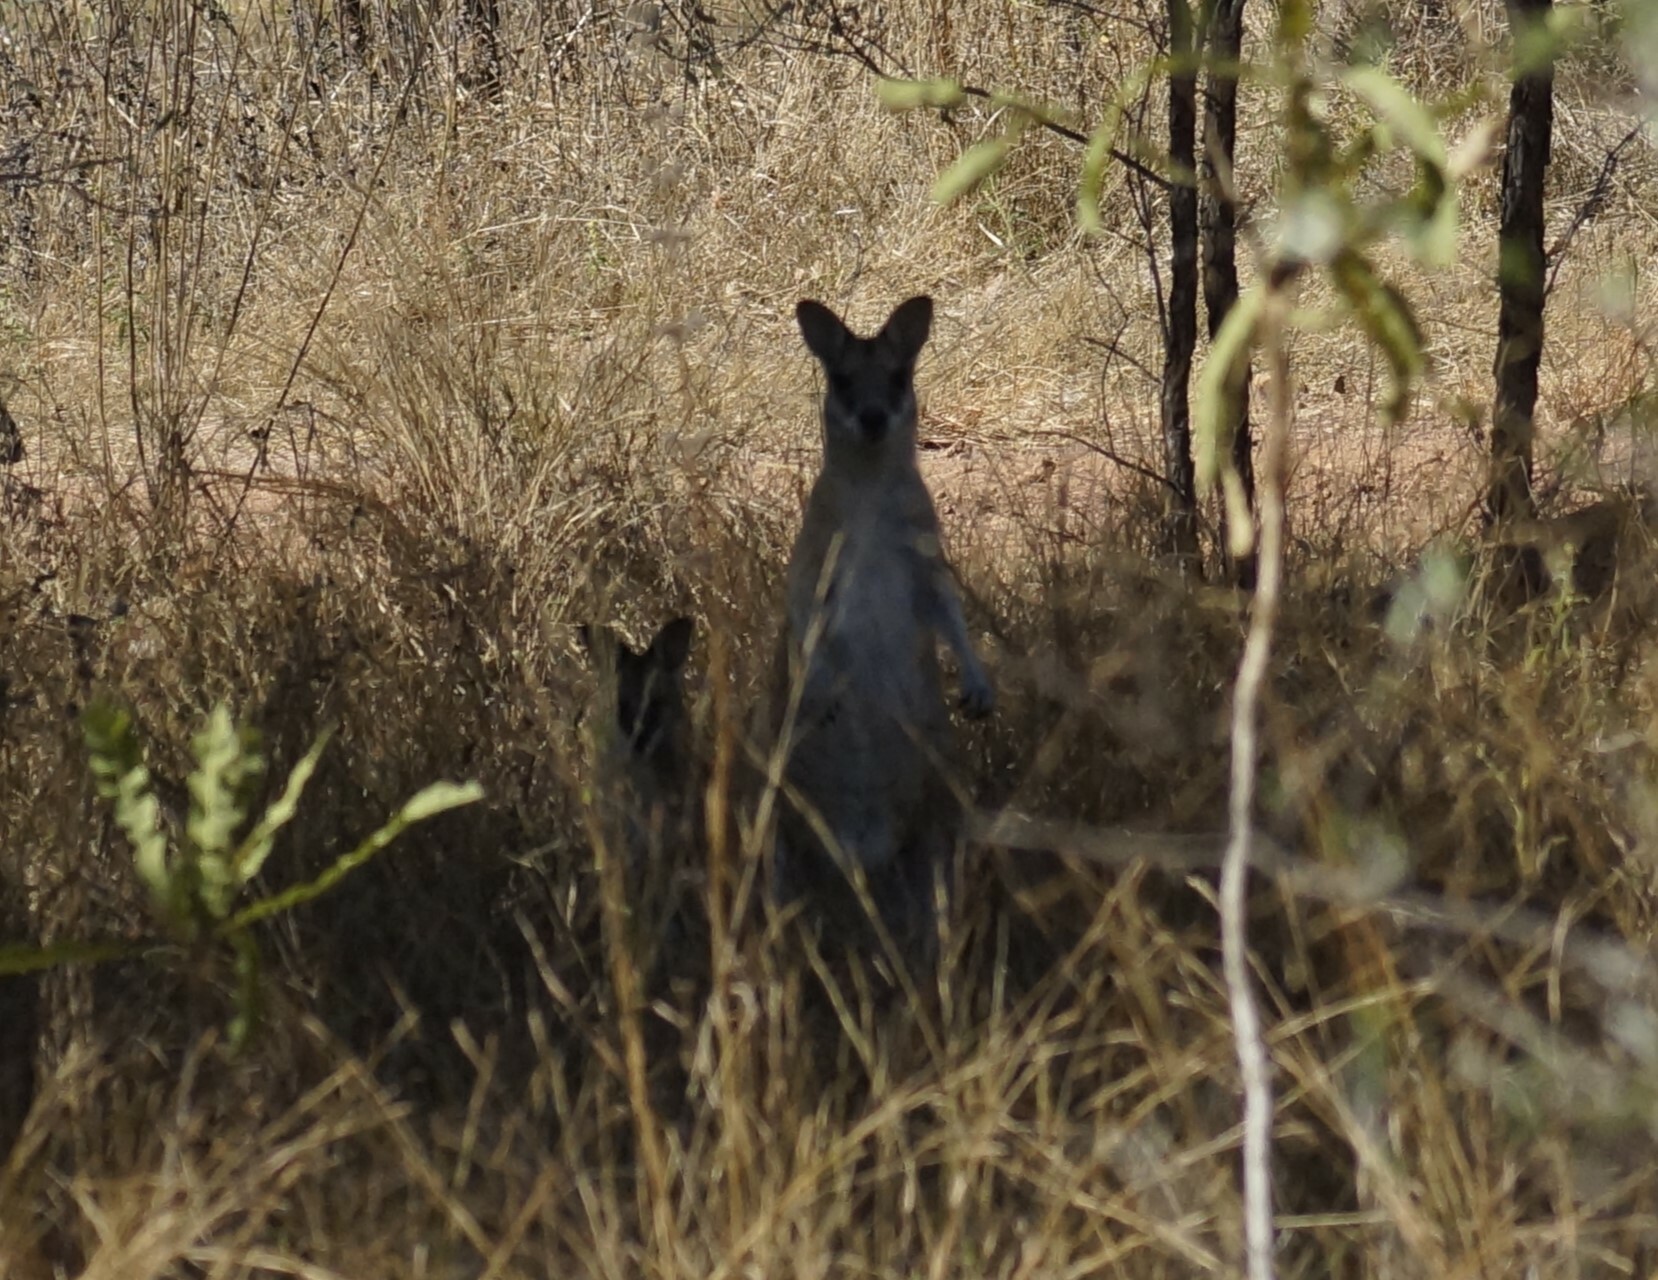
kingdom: Animalia
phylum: Chordata
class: Mammalia
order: Diprotodontia
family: Macropodidae
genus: Macropus
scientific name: Macropus agilis
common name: Agile wallaby
